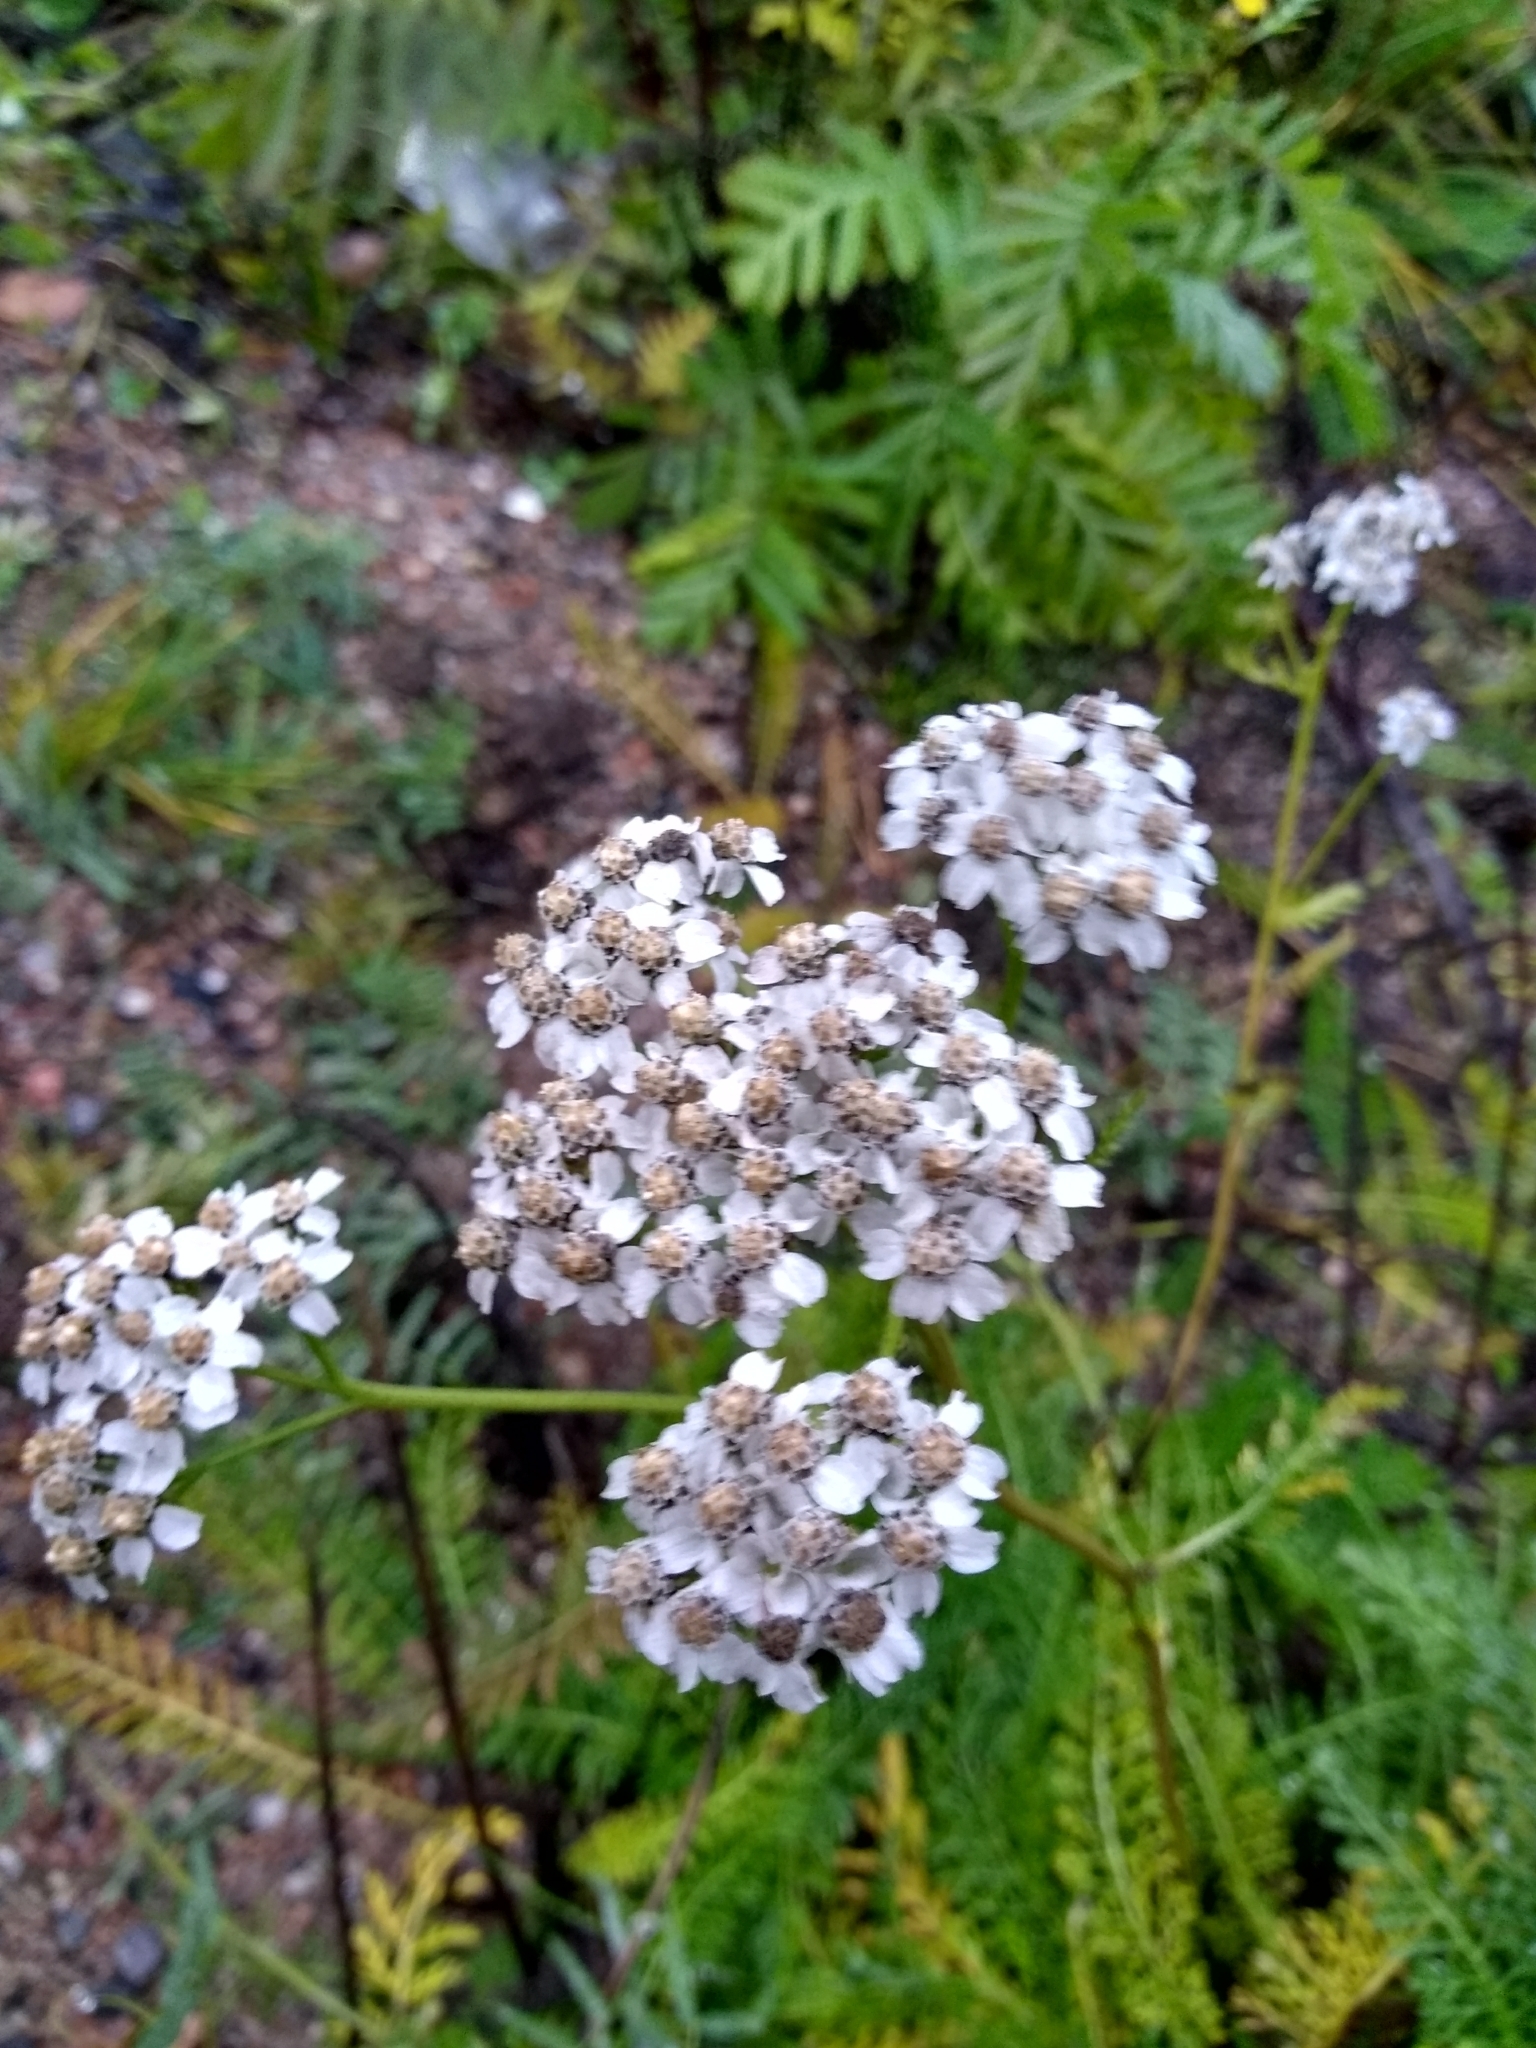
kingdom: Plantae
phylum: Tracheophyta
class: Magnoliopsida
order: Asterales
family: Asteraceae
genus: Achillea
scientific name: Achillea millefolium
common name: Yarrow
